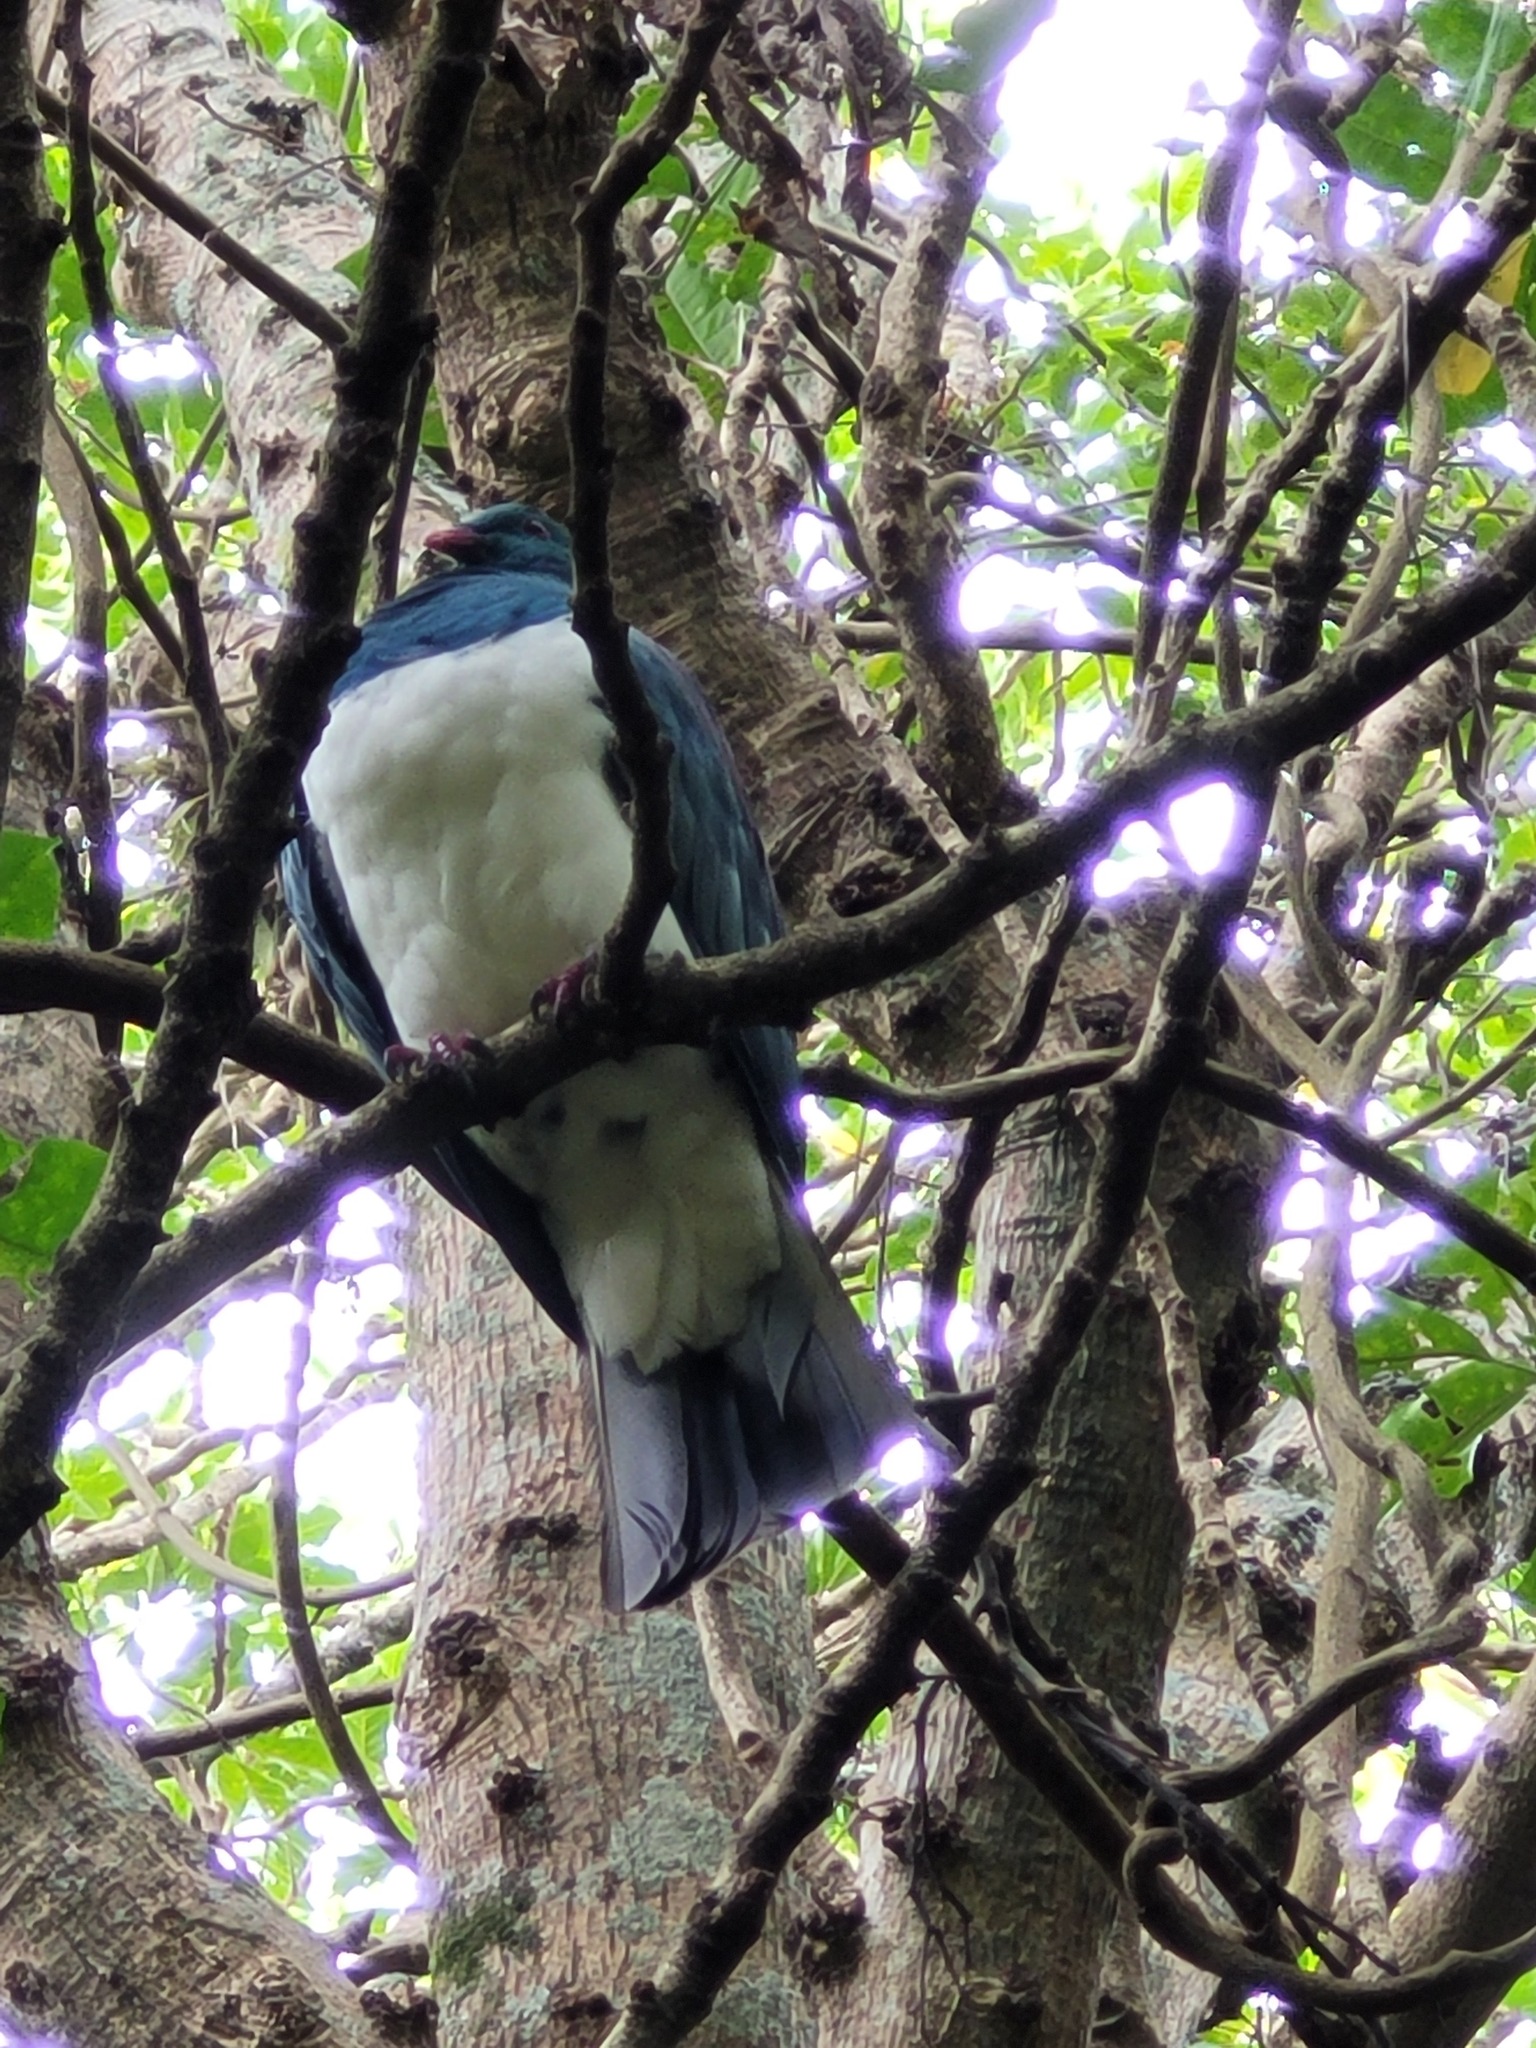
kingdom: Animalia
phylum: Chordata
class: Aves
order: Columbiformes
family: Columbidae
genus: Hemiphaga
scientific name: Hemiphaga novaeseelandiae
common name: New zealand pigeon
